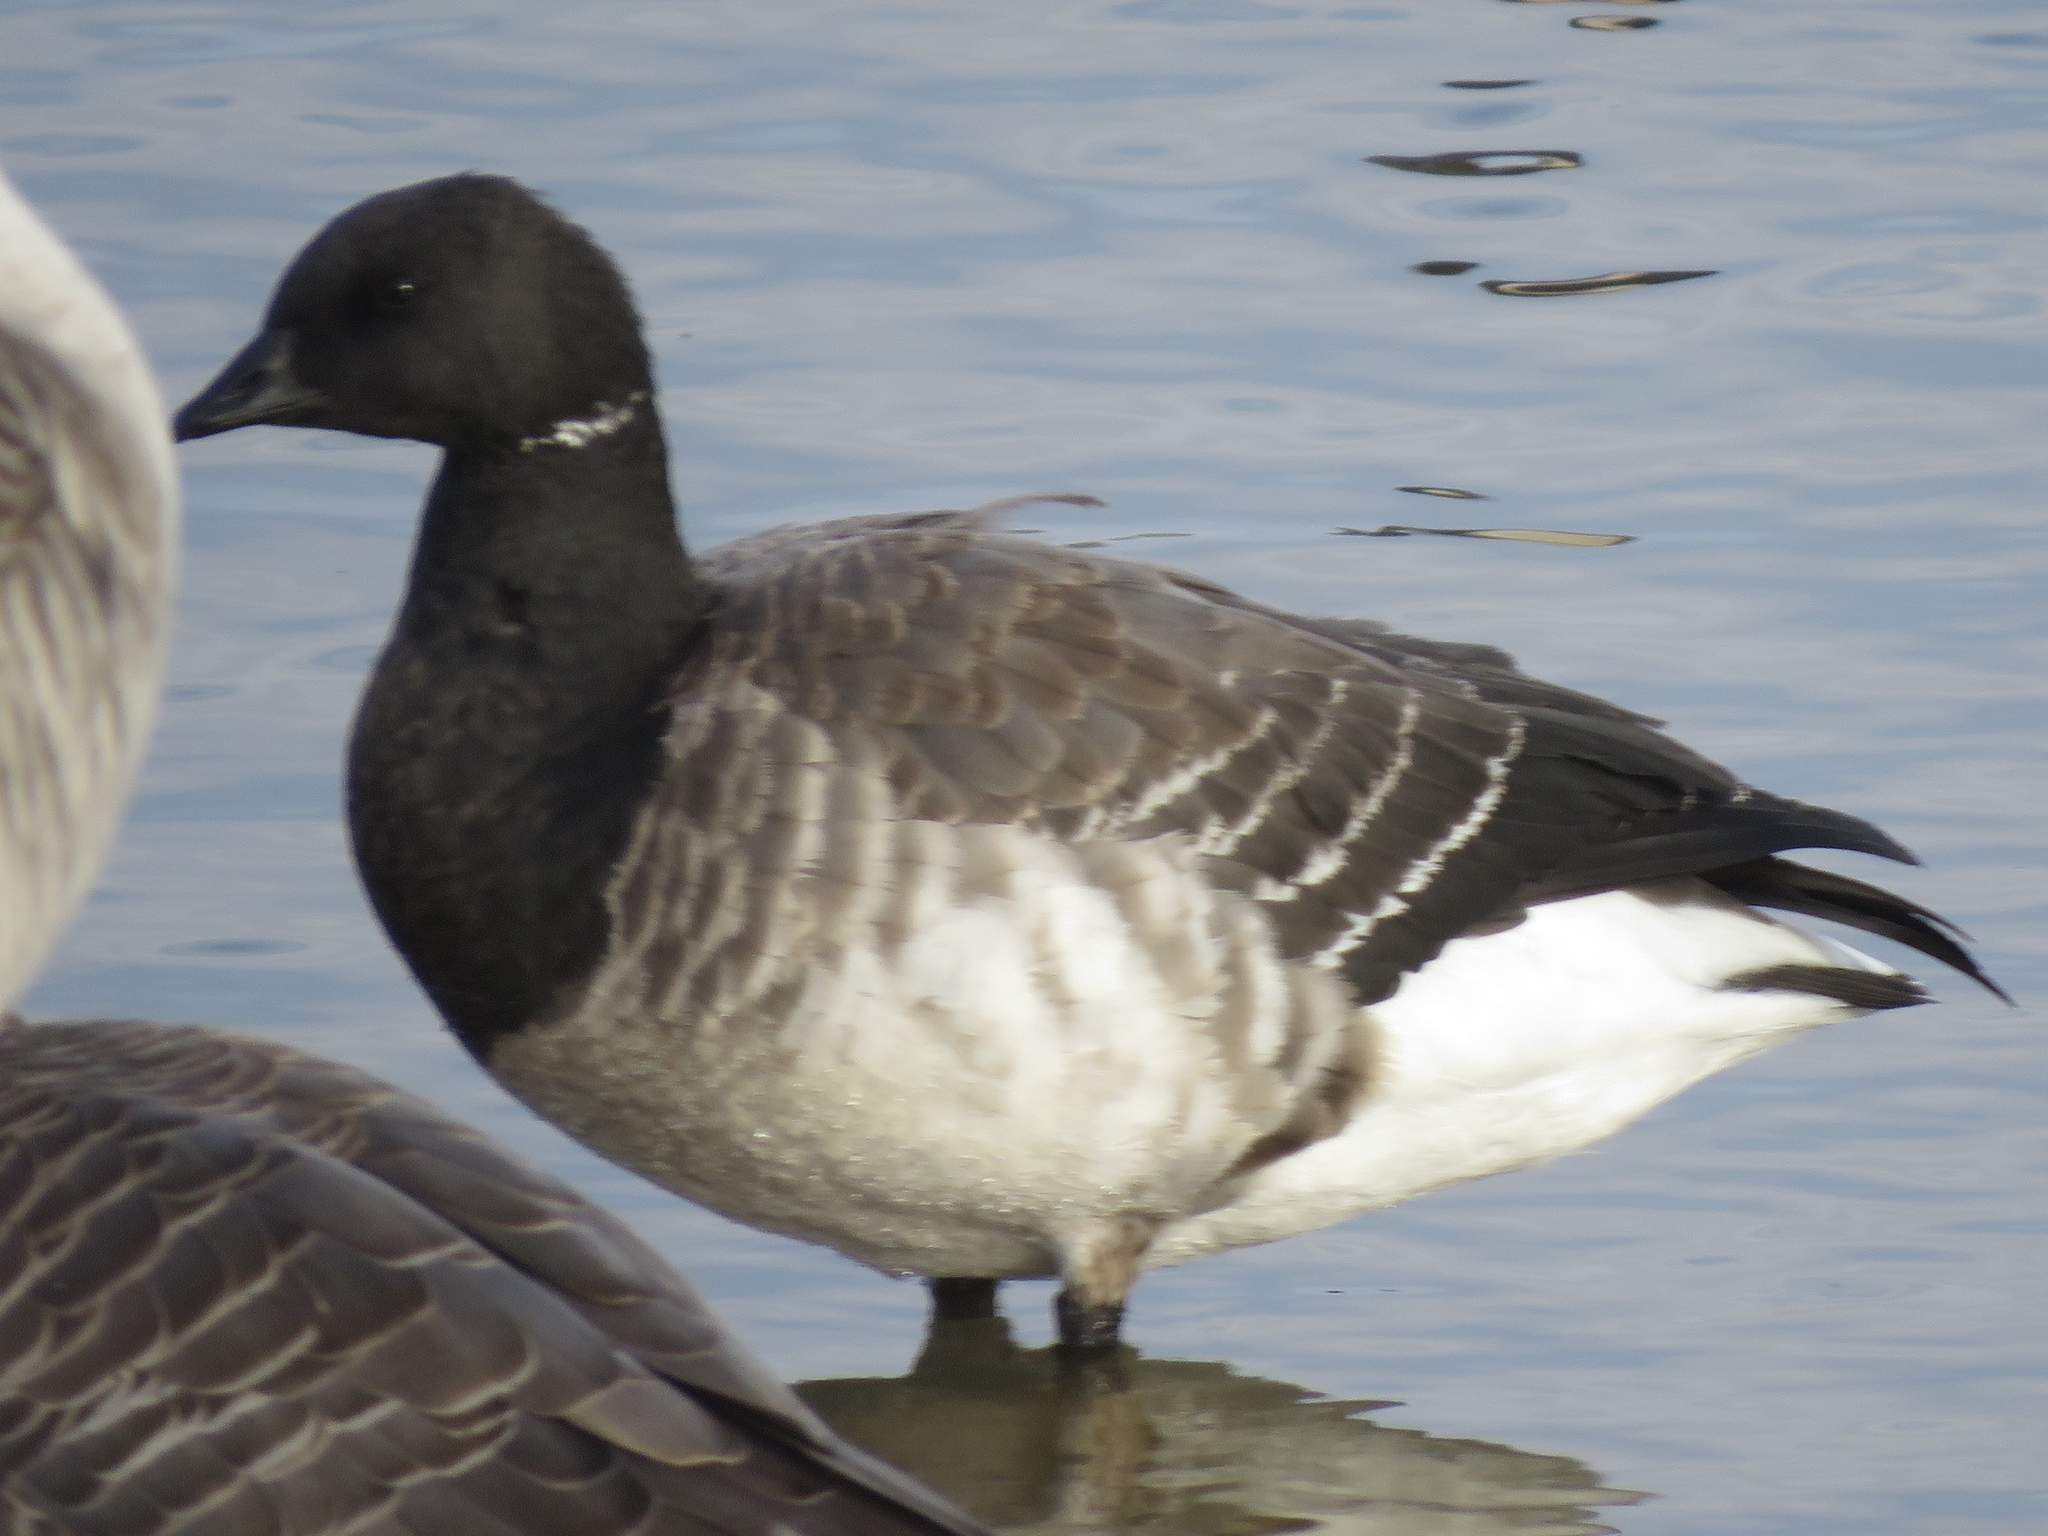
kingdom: Animalia
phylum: Chordata
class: Aves
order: Anseriformes
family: Anatidae
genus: Branta
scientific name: Branta bernicla
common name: Brant goose
